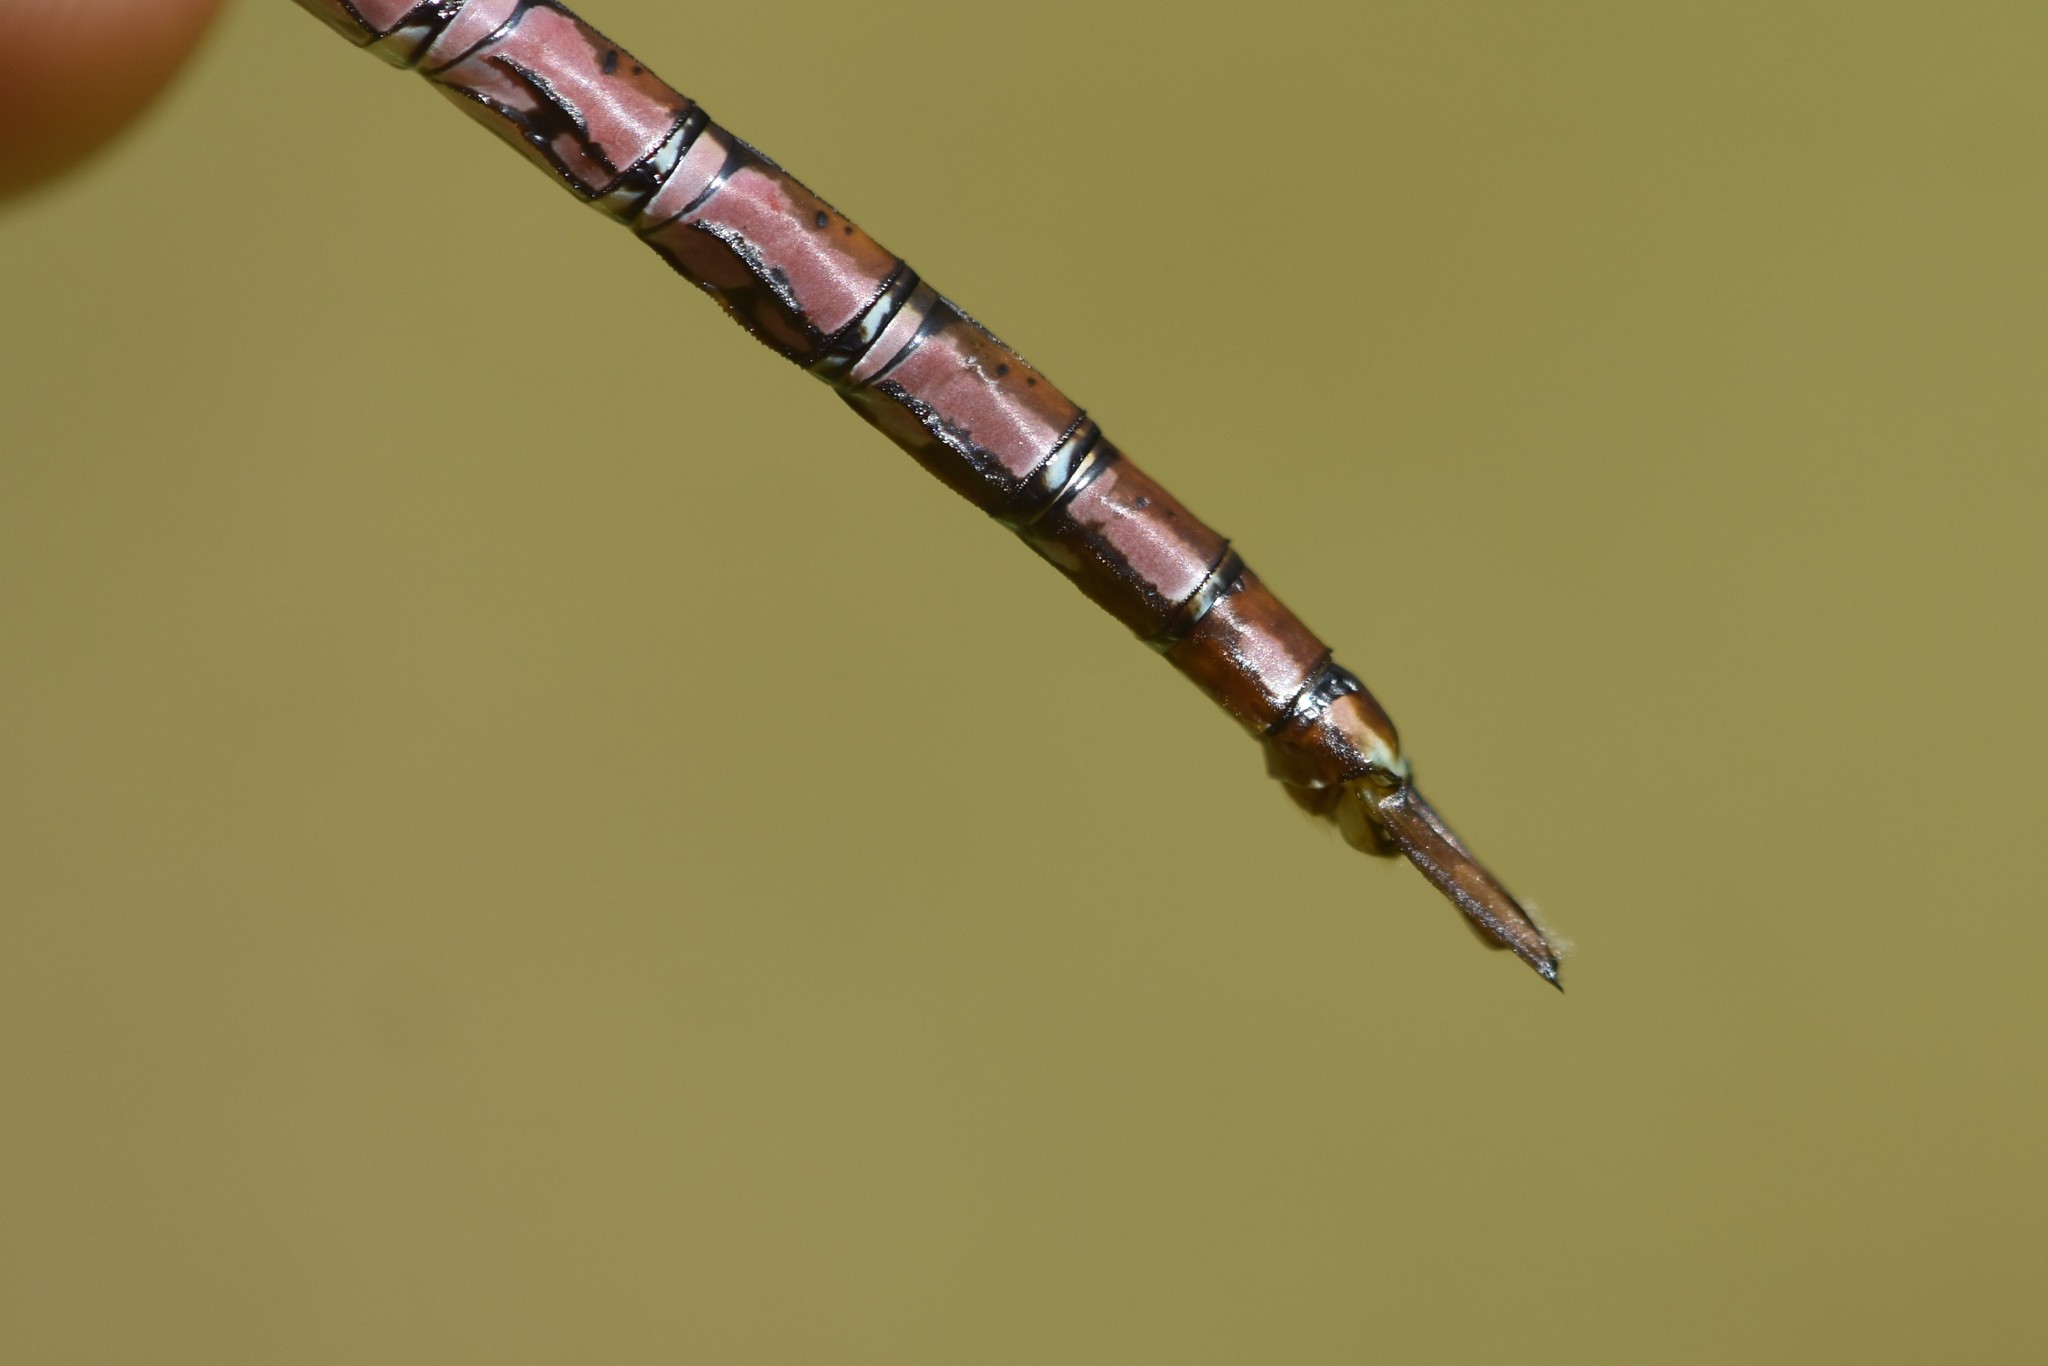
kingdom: Animalia
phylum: Arthropoda
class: Insecta
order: Odonata
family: Aeshnidae
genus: Anax
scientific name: Anax junius
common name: Common green darner
